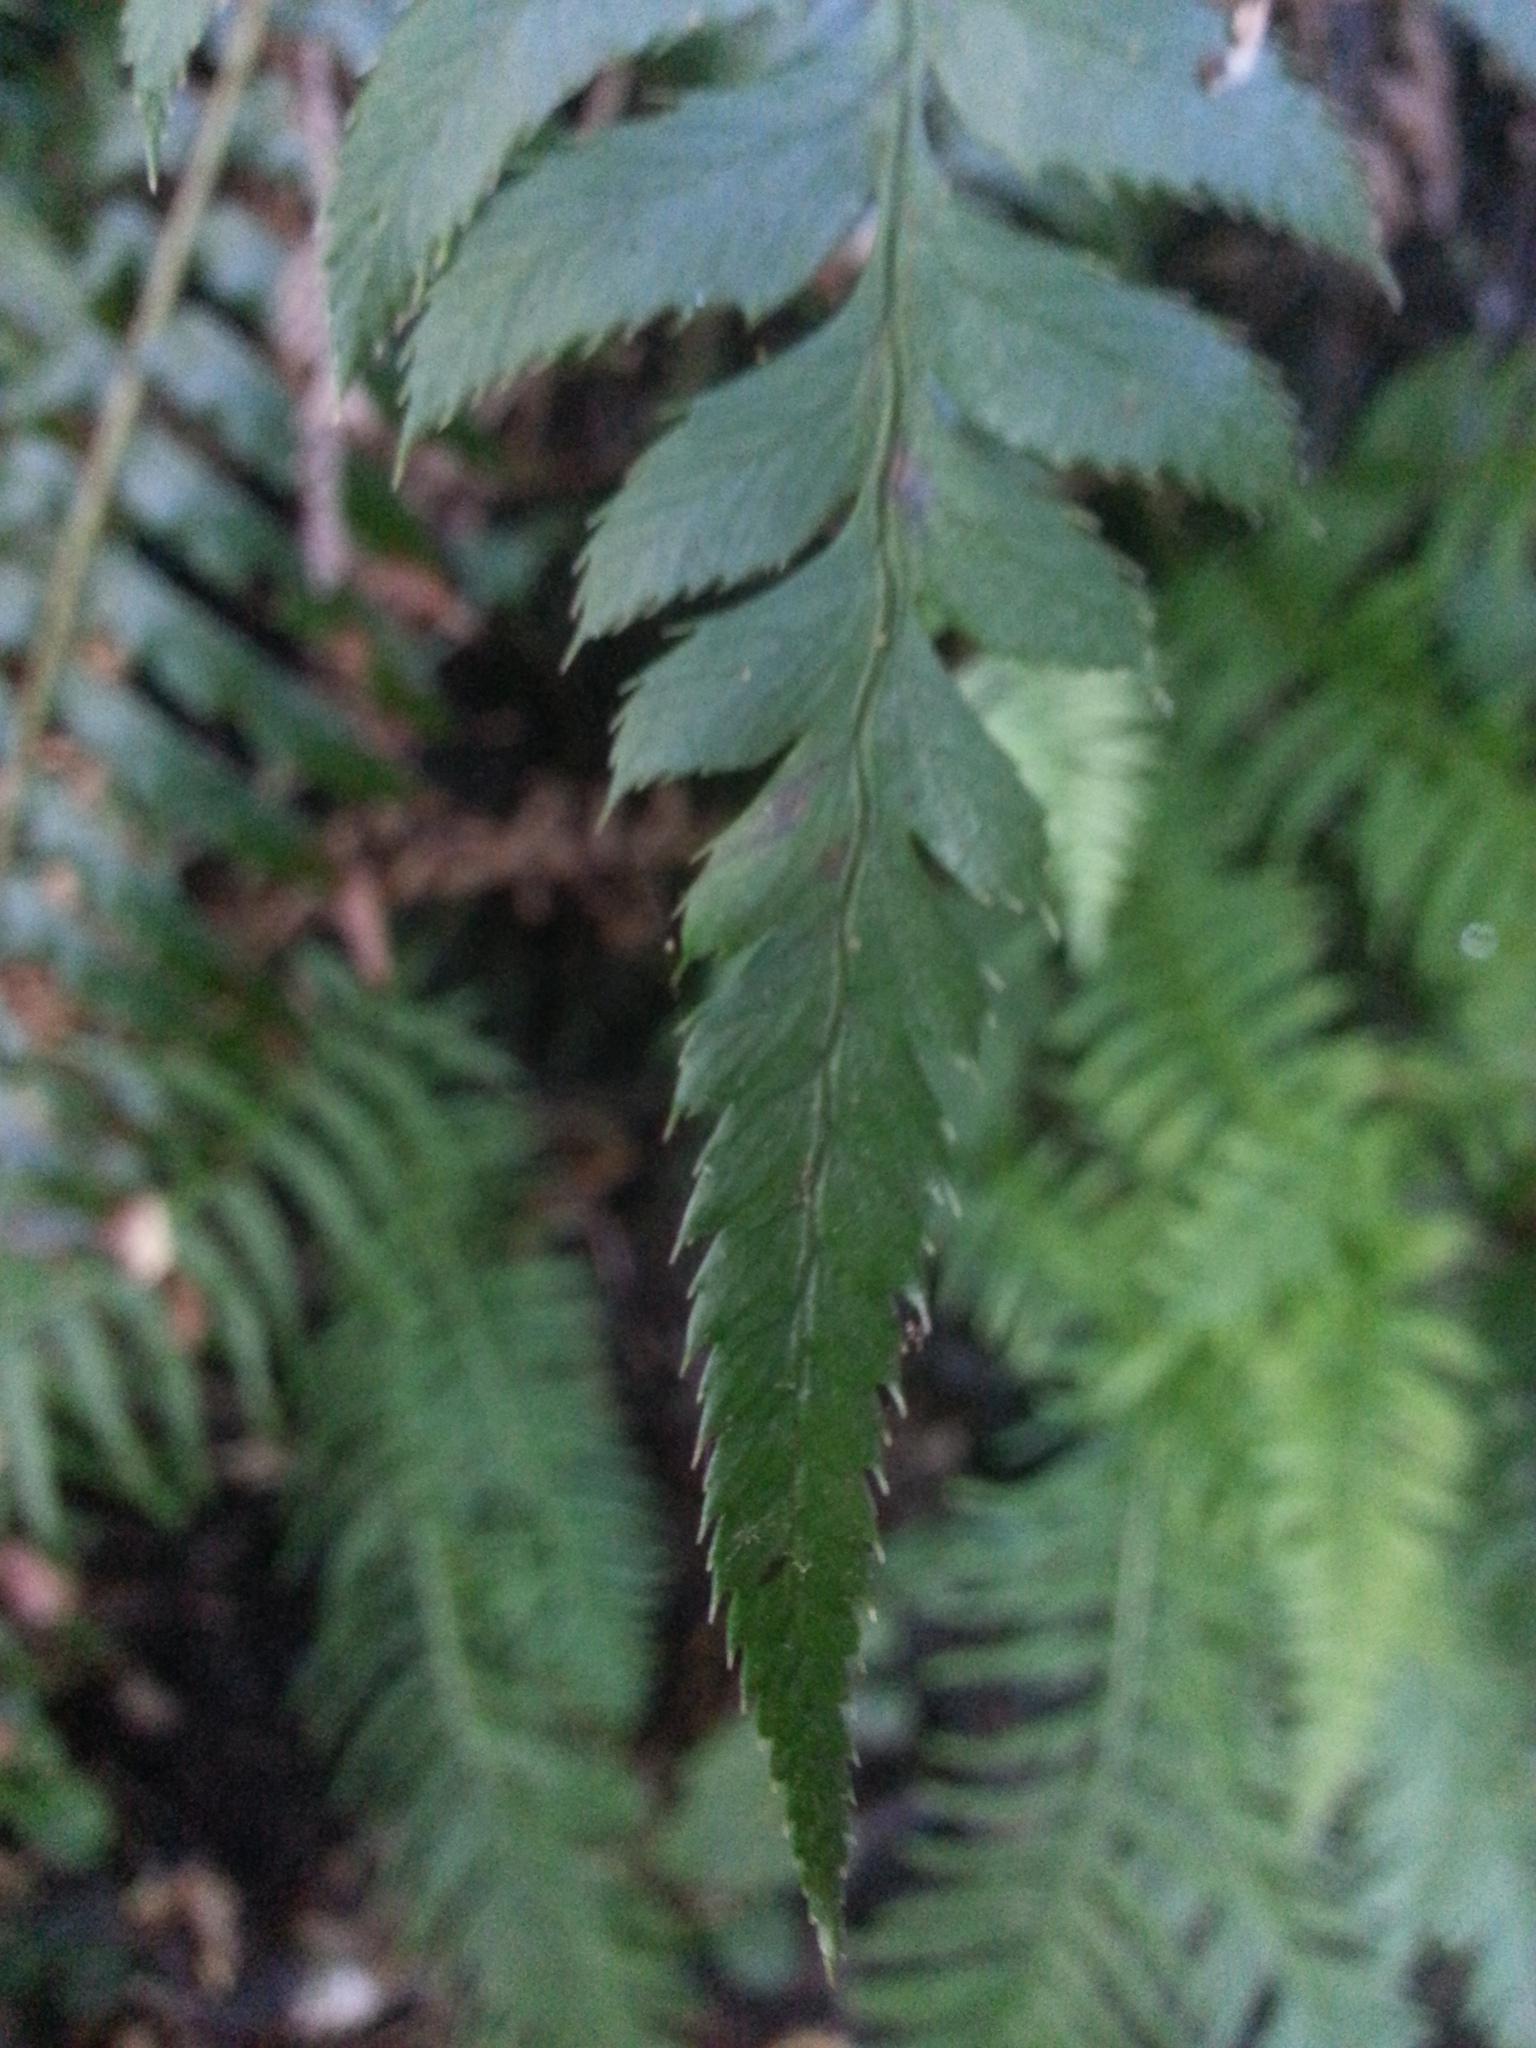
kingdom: Plantae
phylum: Tracheophyta
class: Polypodiopsida
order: Polypodiales
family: Dryopteridaceae
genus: Polystichum
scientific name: Polystichum munitum
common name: Western sword-fern
